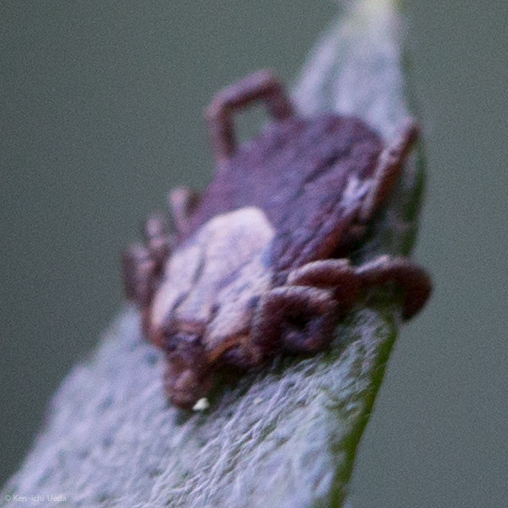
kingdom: Animalia
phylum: Arthropoda
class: Arachnida
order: Ixodida
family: Ixodidae
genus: Dermacentor
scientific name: Dermacentor occidentalis
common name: Net tick
